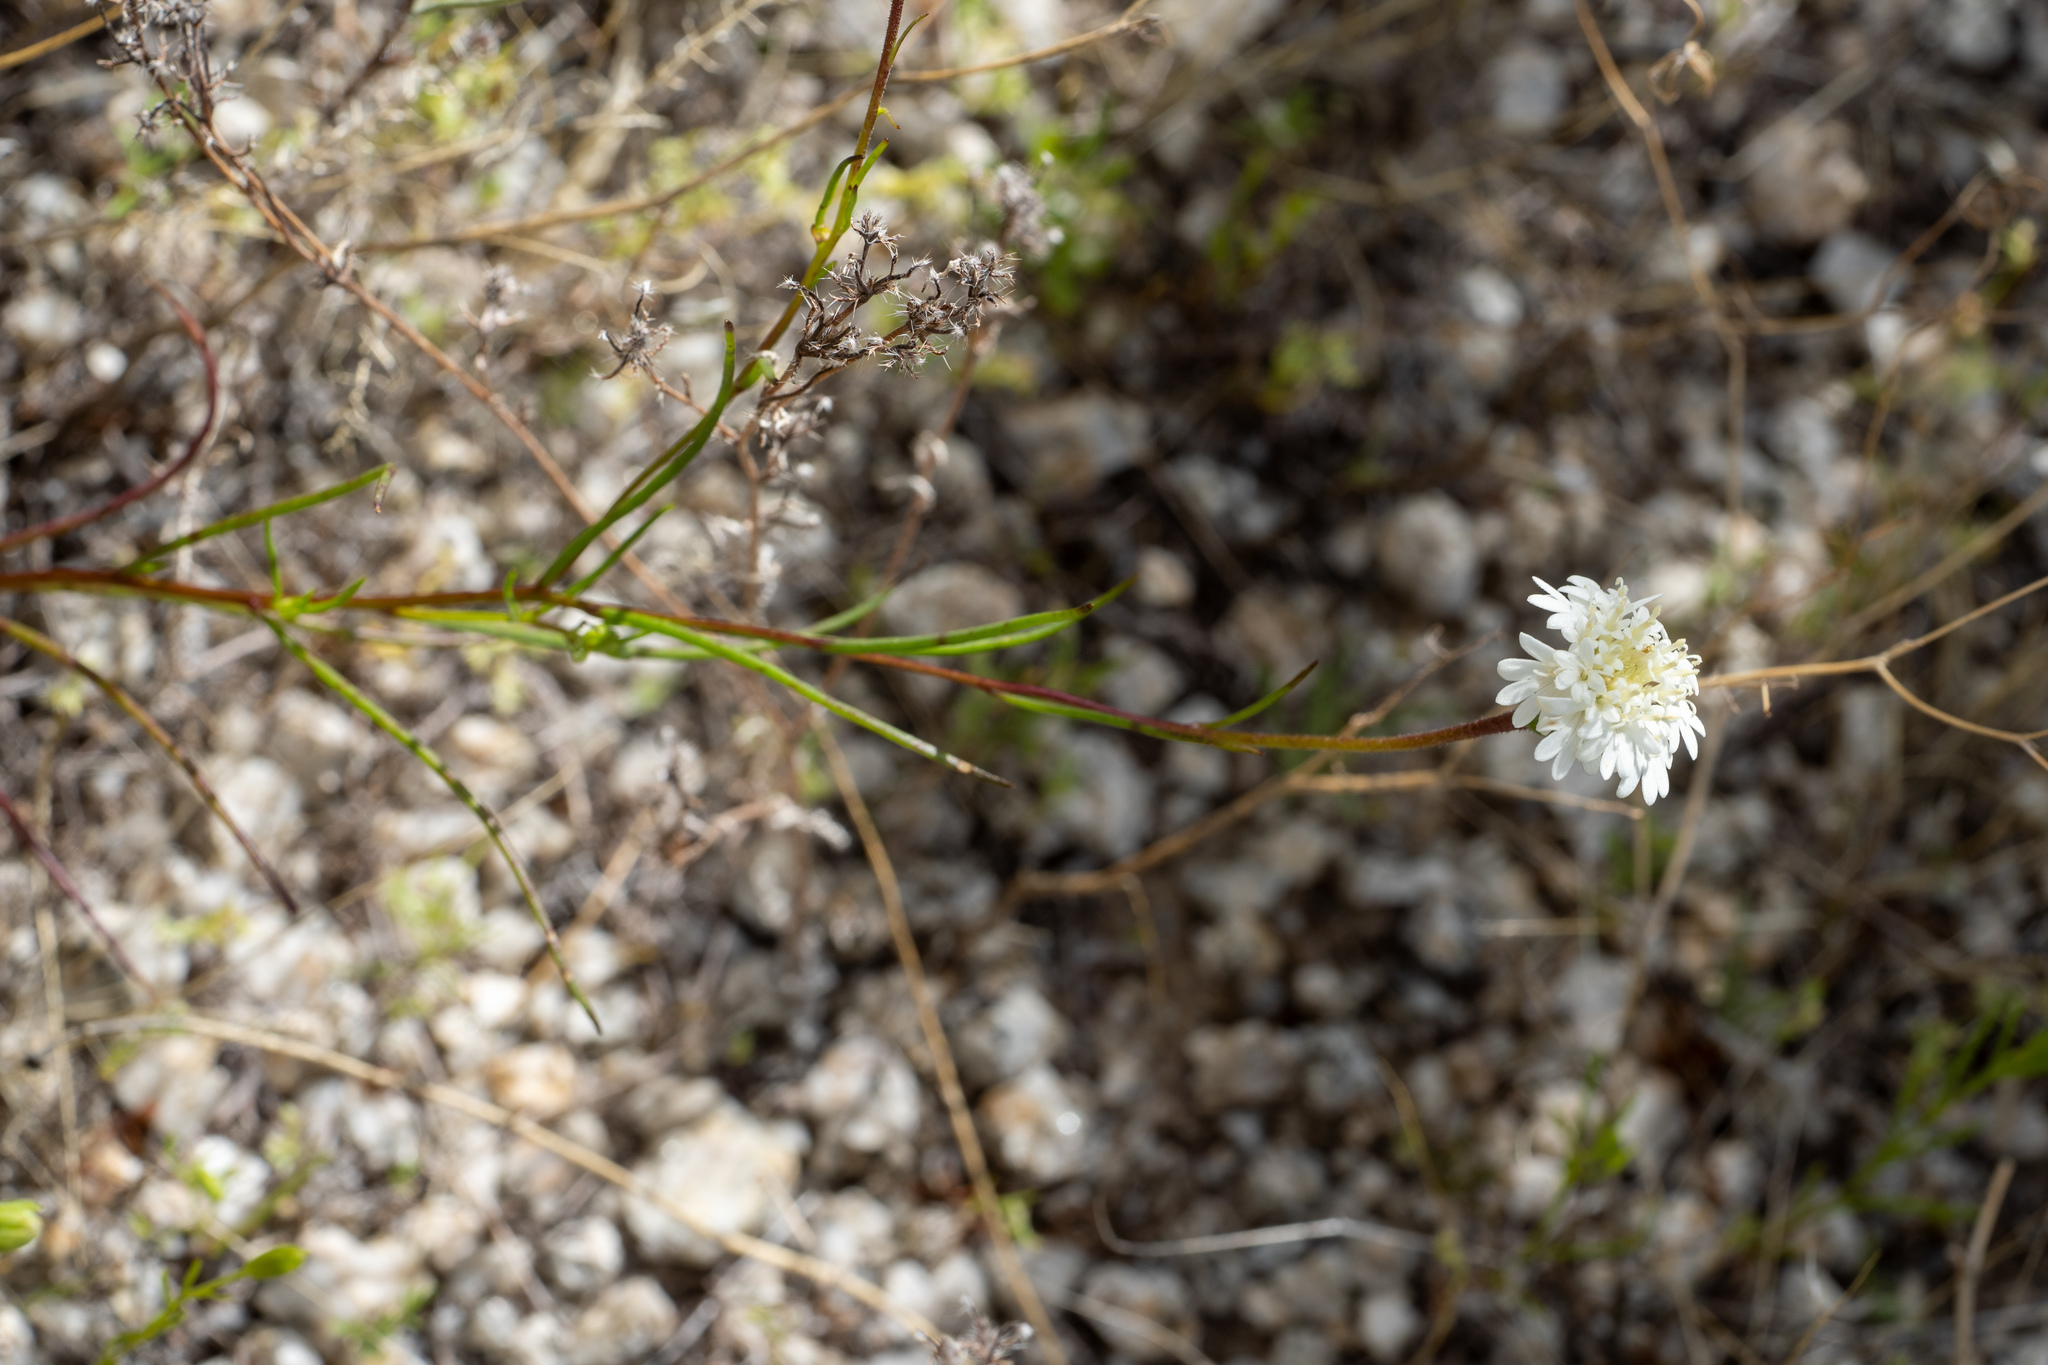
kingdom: Plantae
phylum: Tracheophyta
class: Magnoliopsida
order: Asterales
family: Asteraceae
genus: Chaenactis
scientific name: Chaenactis fremontii
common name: Fremont pincushion
